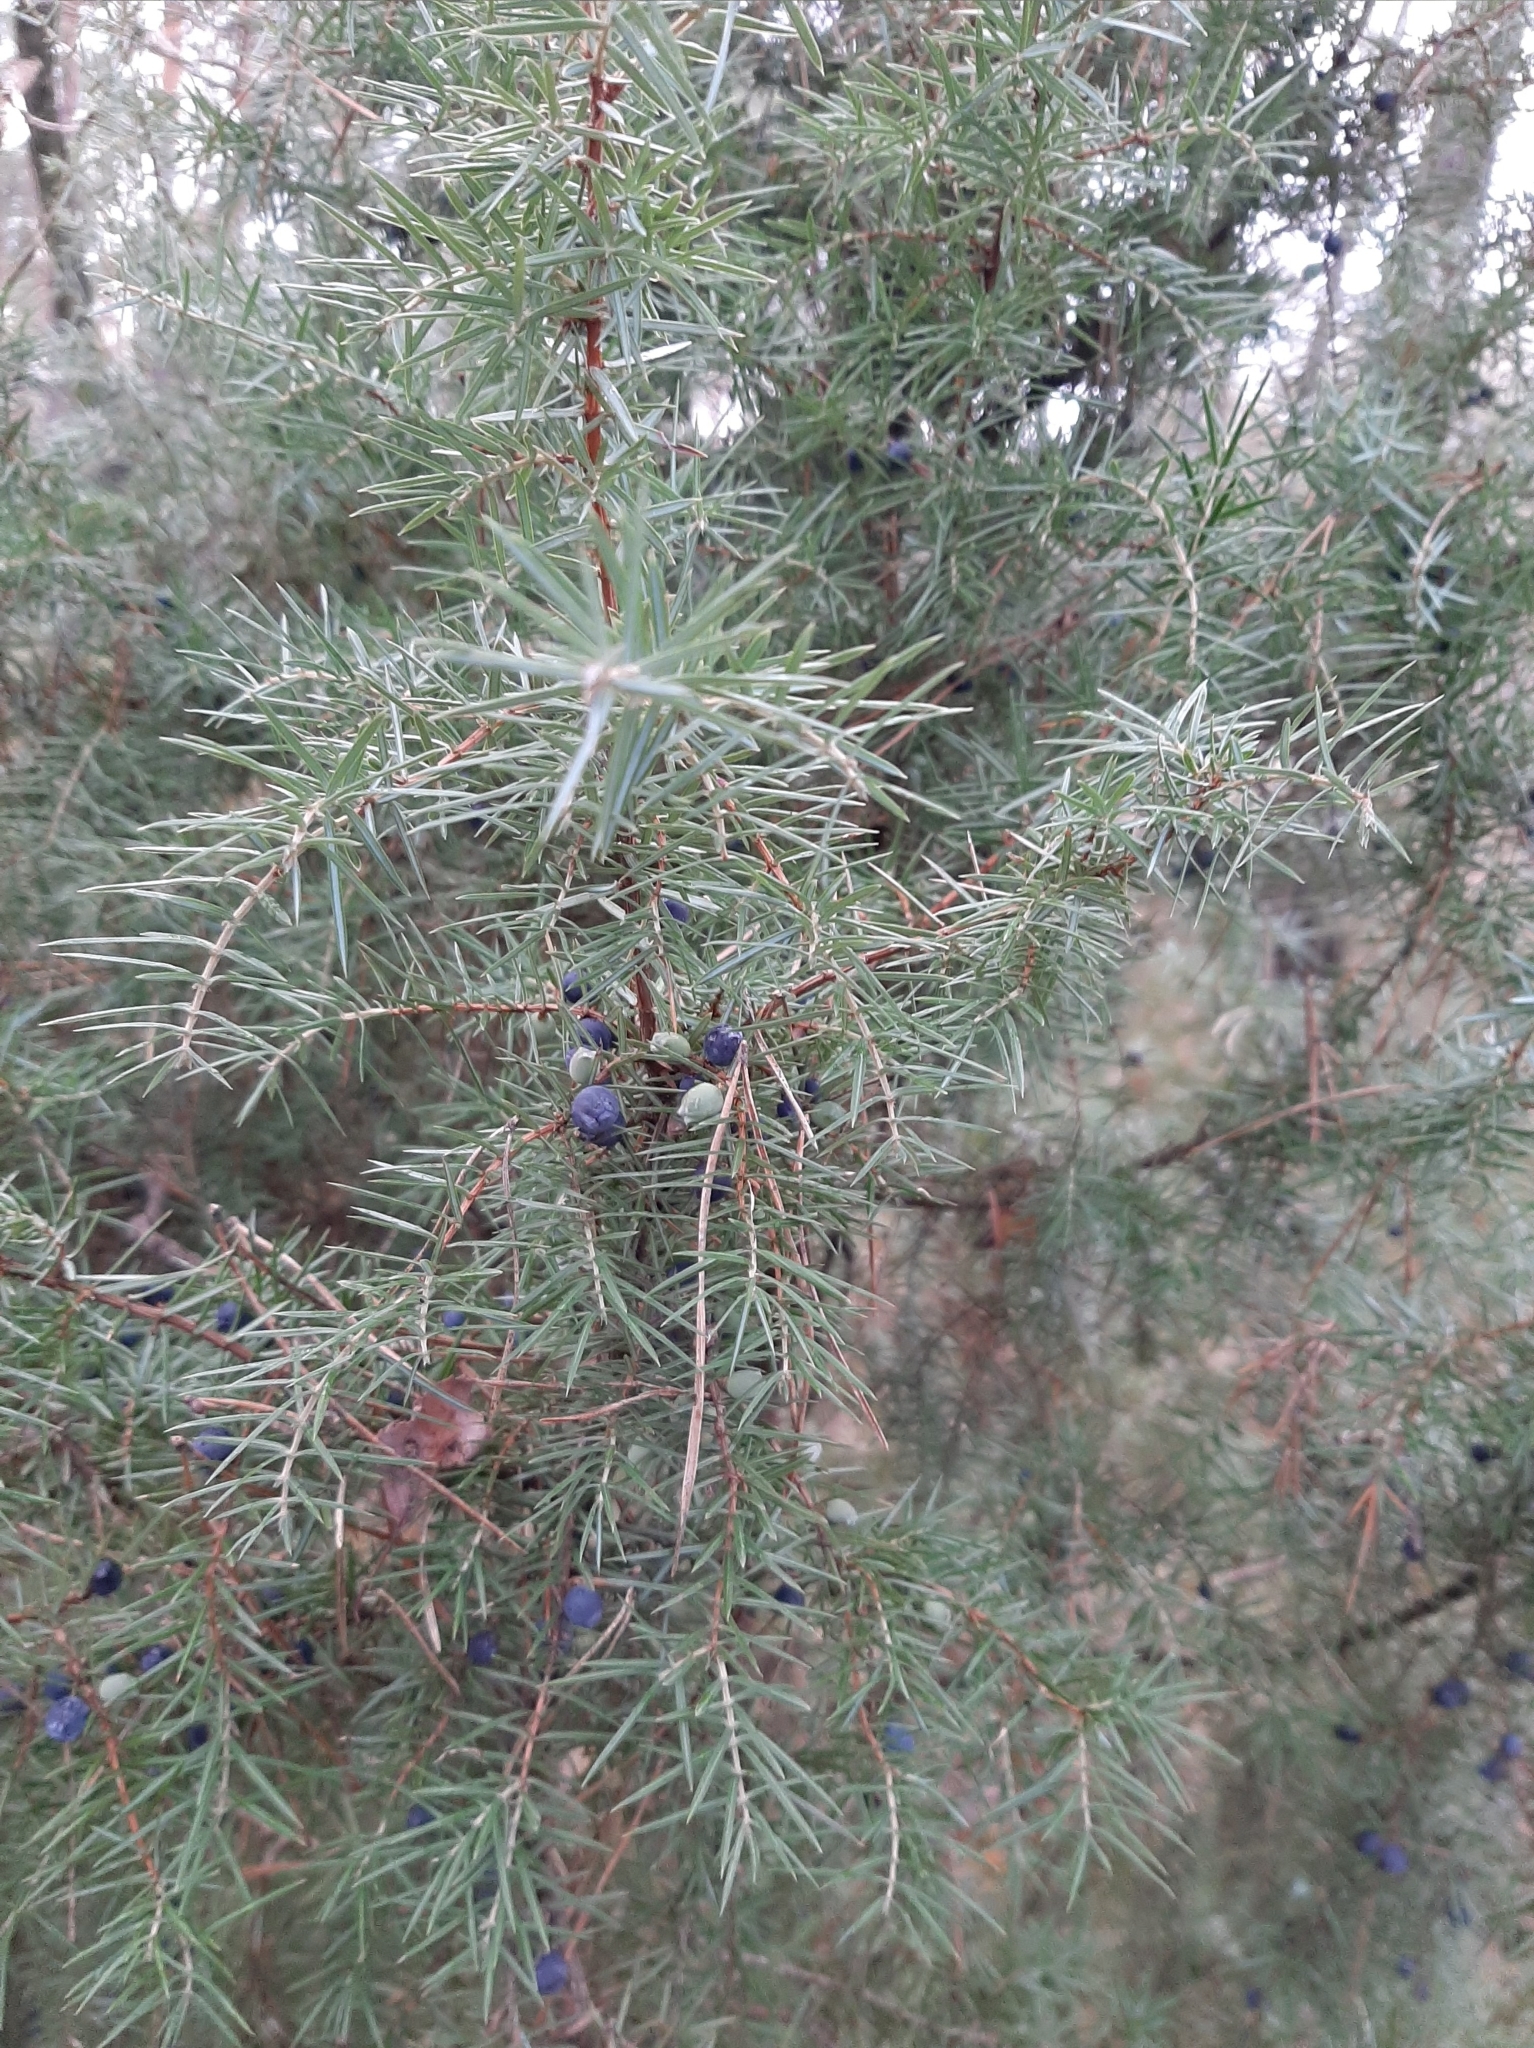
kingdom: Plantae
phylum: Tracheophyta
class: Pinopsida
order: Pinales
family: Cupressaceae
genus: Juniperus
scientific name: Juniperus communis
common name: Common juniper
